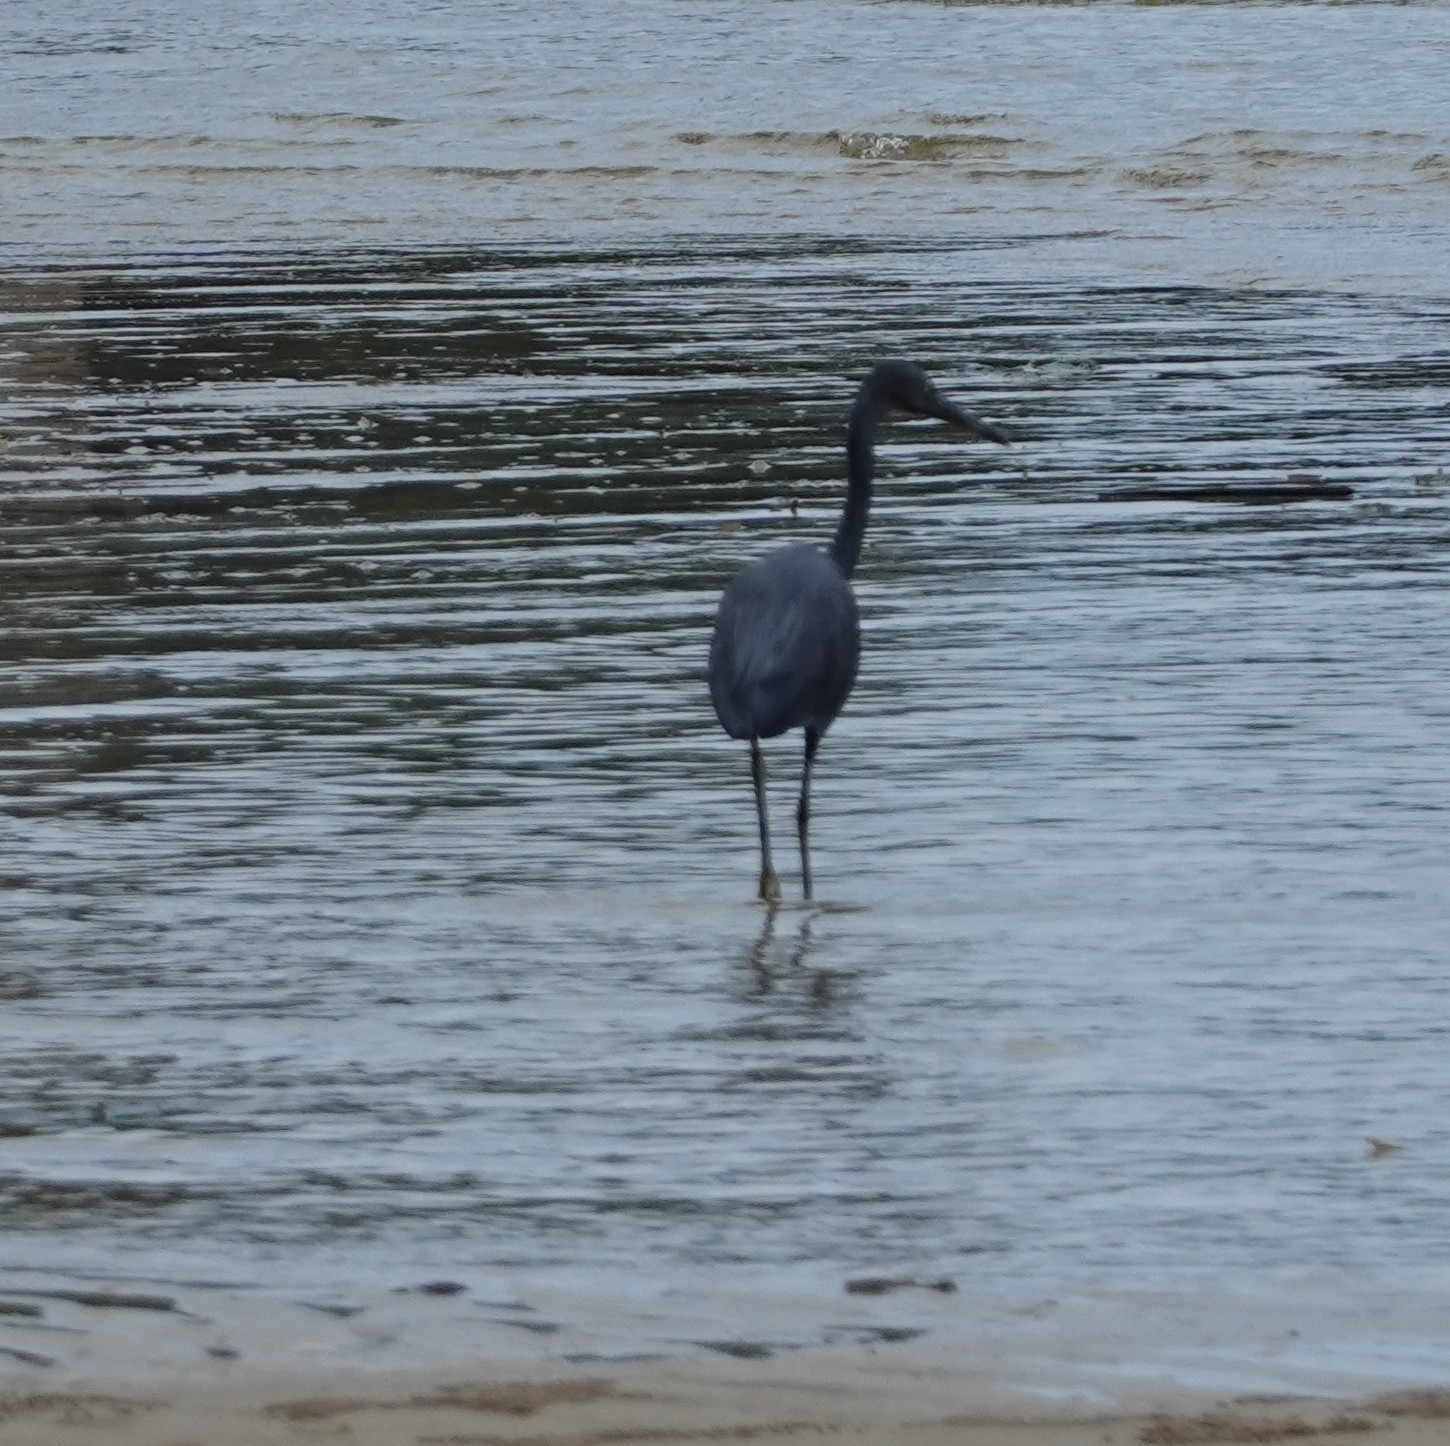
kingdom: Animalia
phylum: Chordata
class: Aves
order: Pelecaniformes
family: Ardeidae
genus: Egretta
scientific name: Egretta sacra
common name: Pacific reef heron
